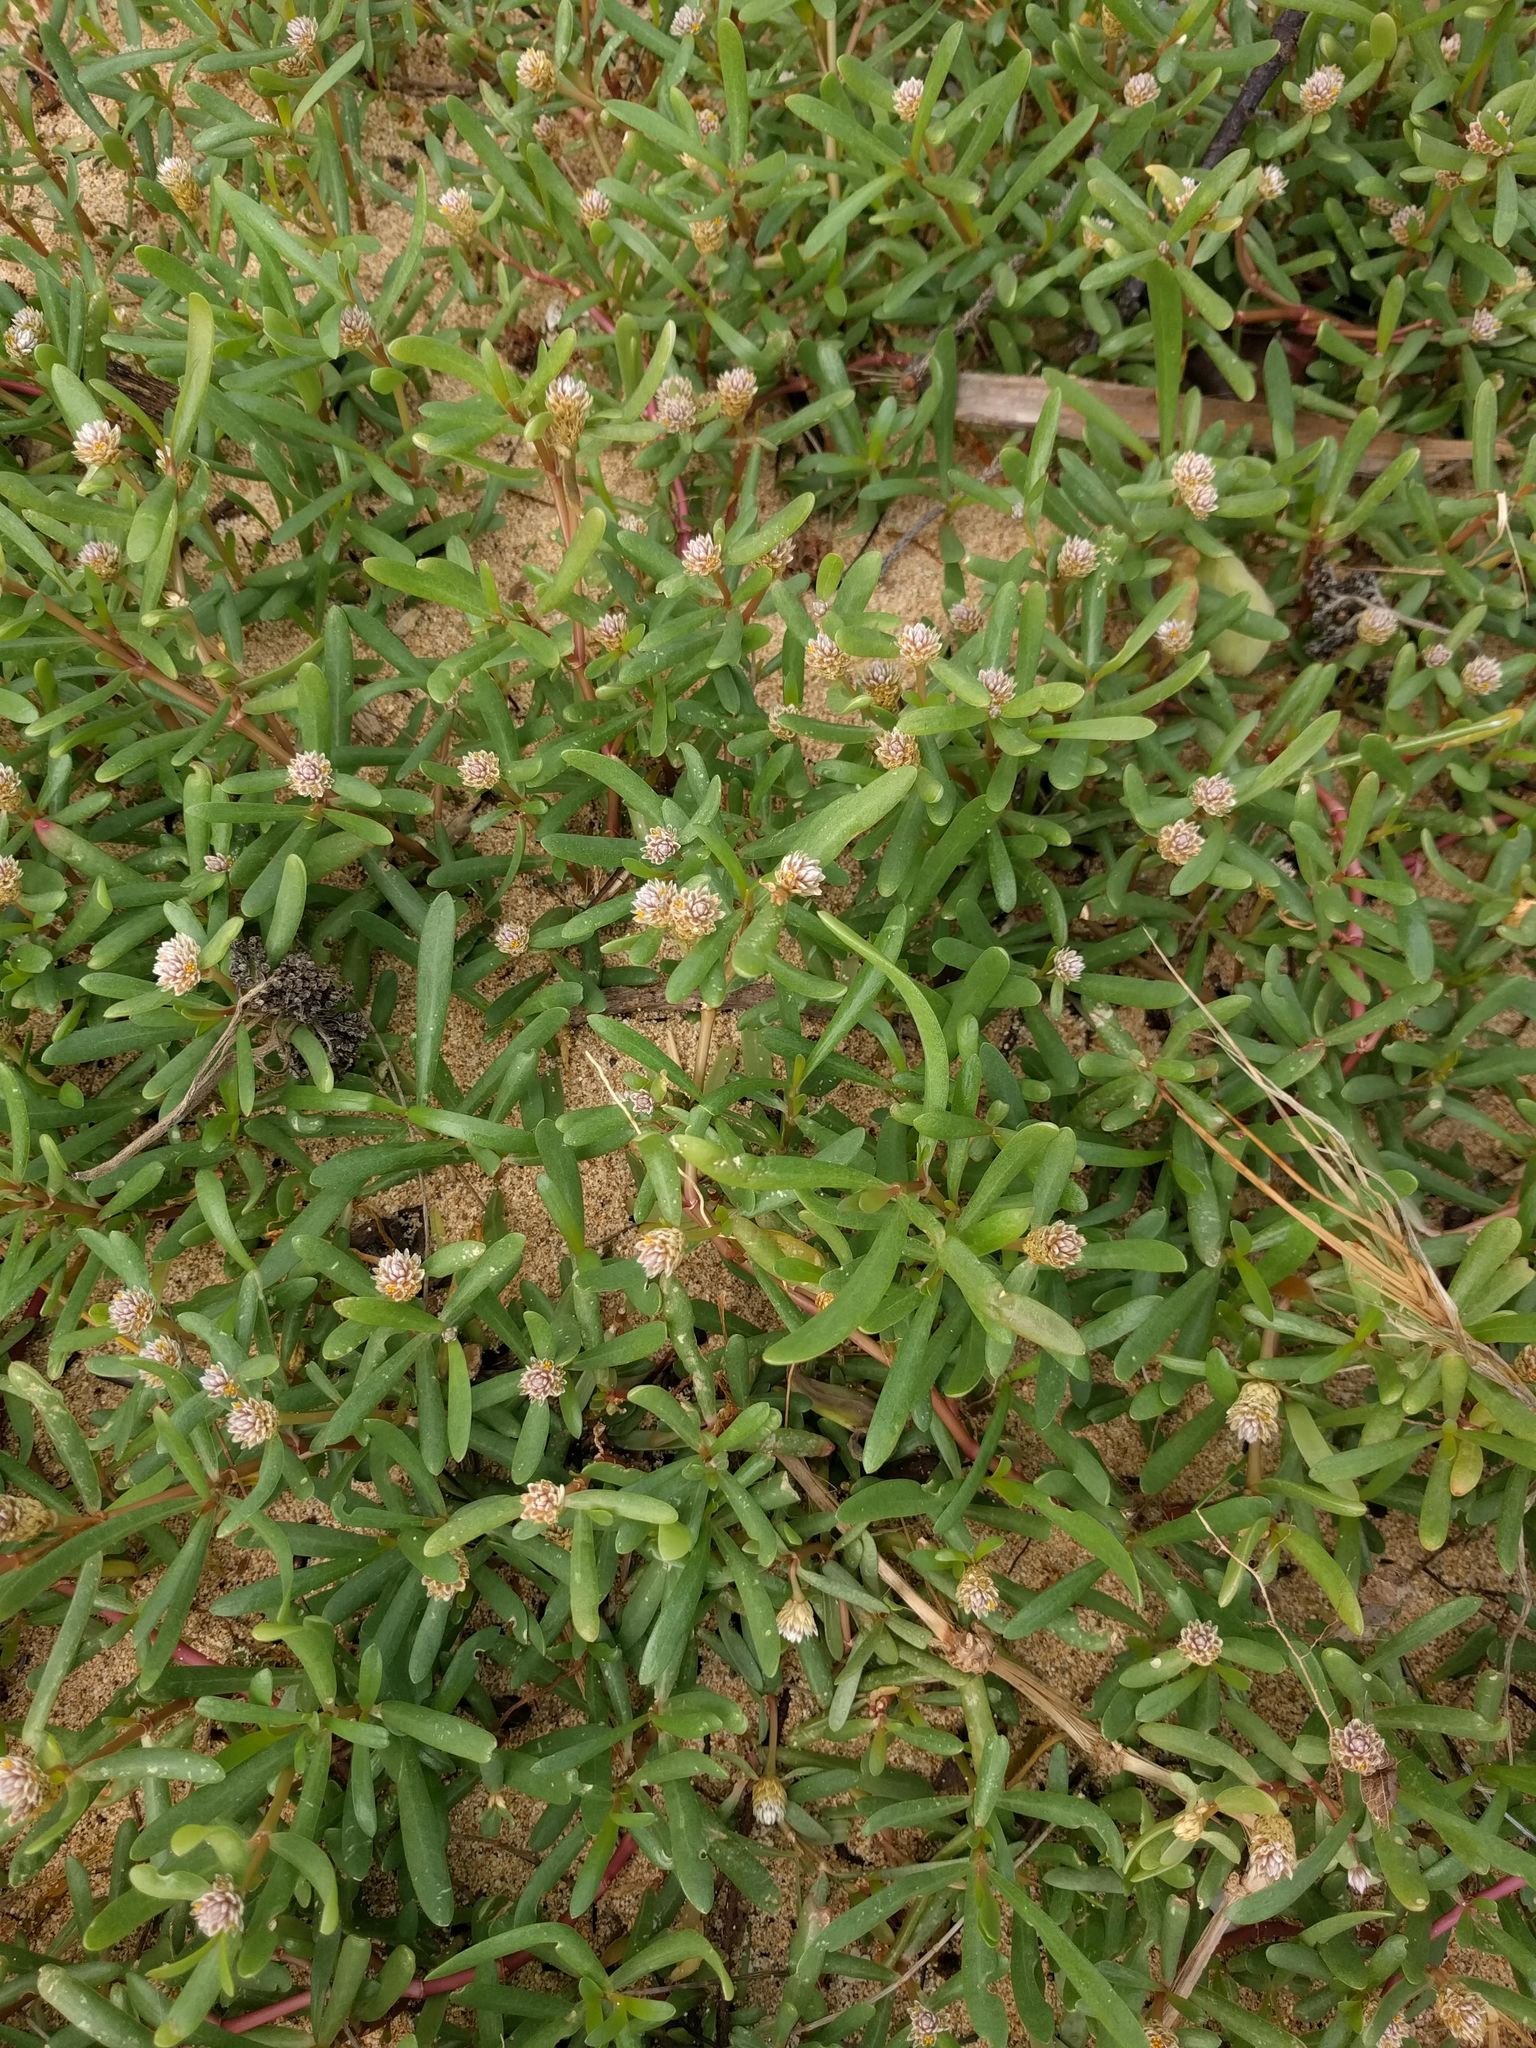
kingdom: Plantae
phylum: Tracheophyta
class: Magnoliopsida
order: Caryophyllales
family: Amaranthaceae
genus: Gomphrena
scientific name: Gomphrena vermicularis
